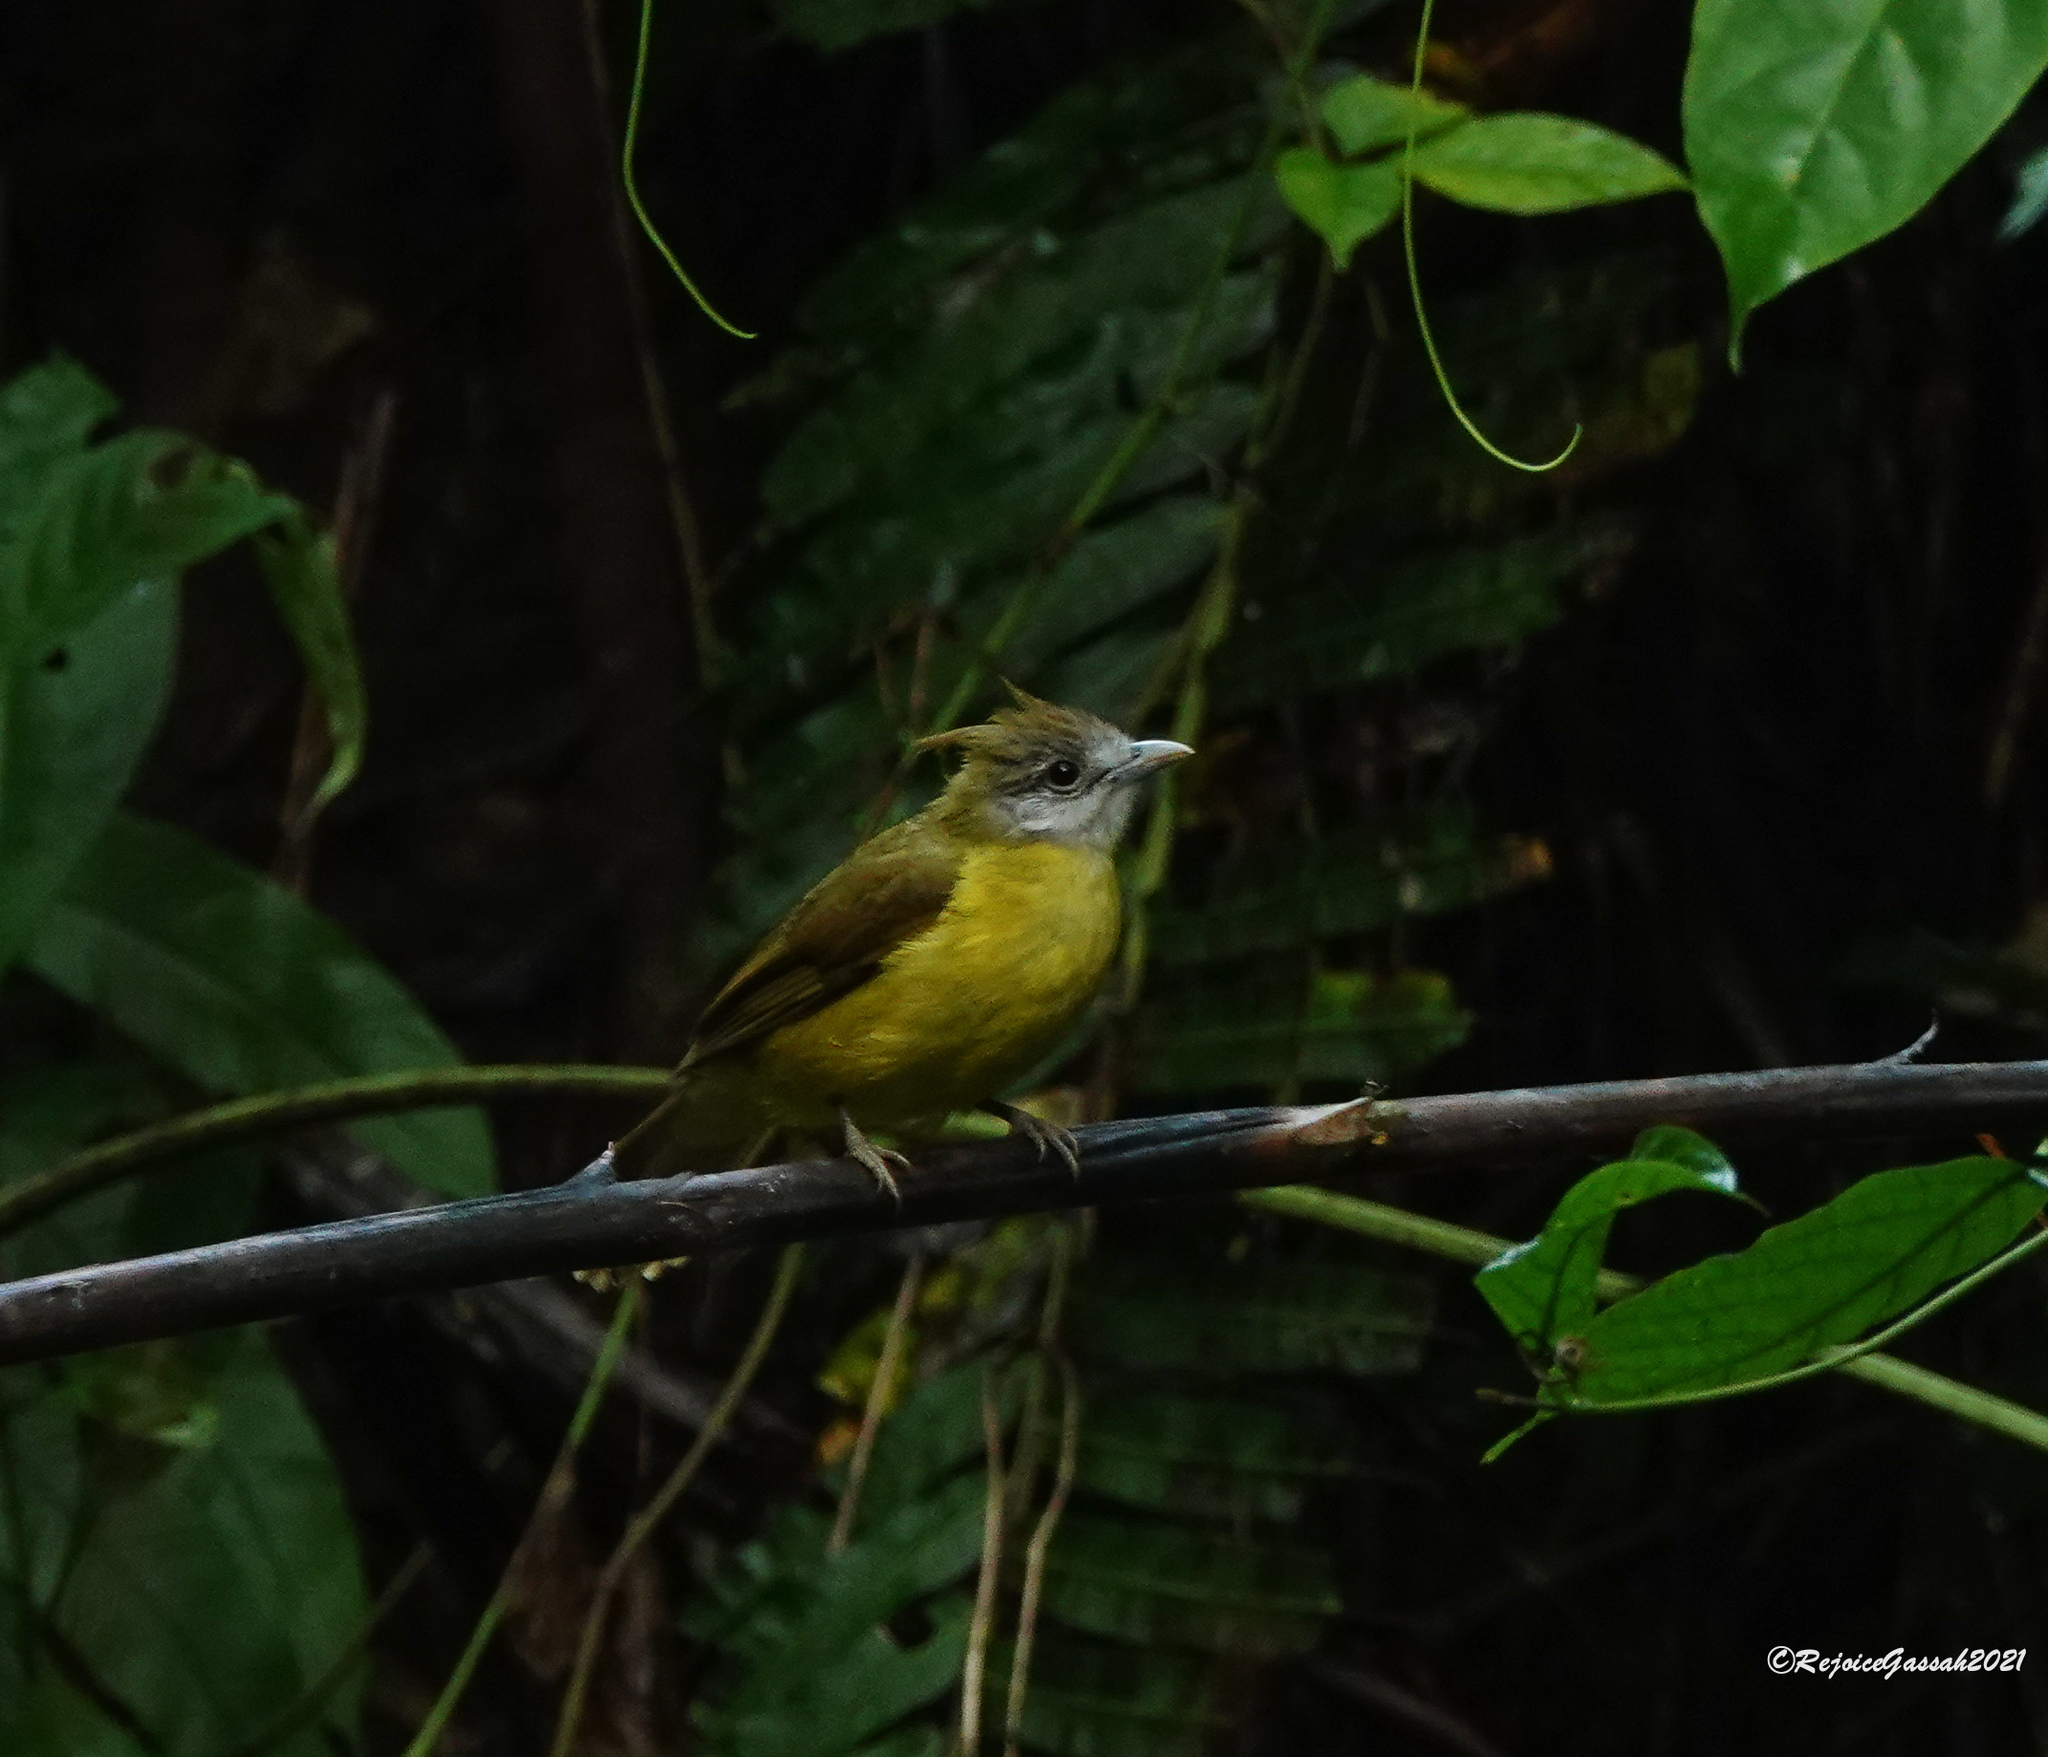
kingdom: Animalia
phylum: Chordata
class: Aves
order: Passeriformes
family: Pycnonotidae
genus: Alophoixus
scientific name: Alophoixus flaveolus
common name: White-throated bulbul
